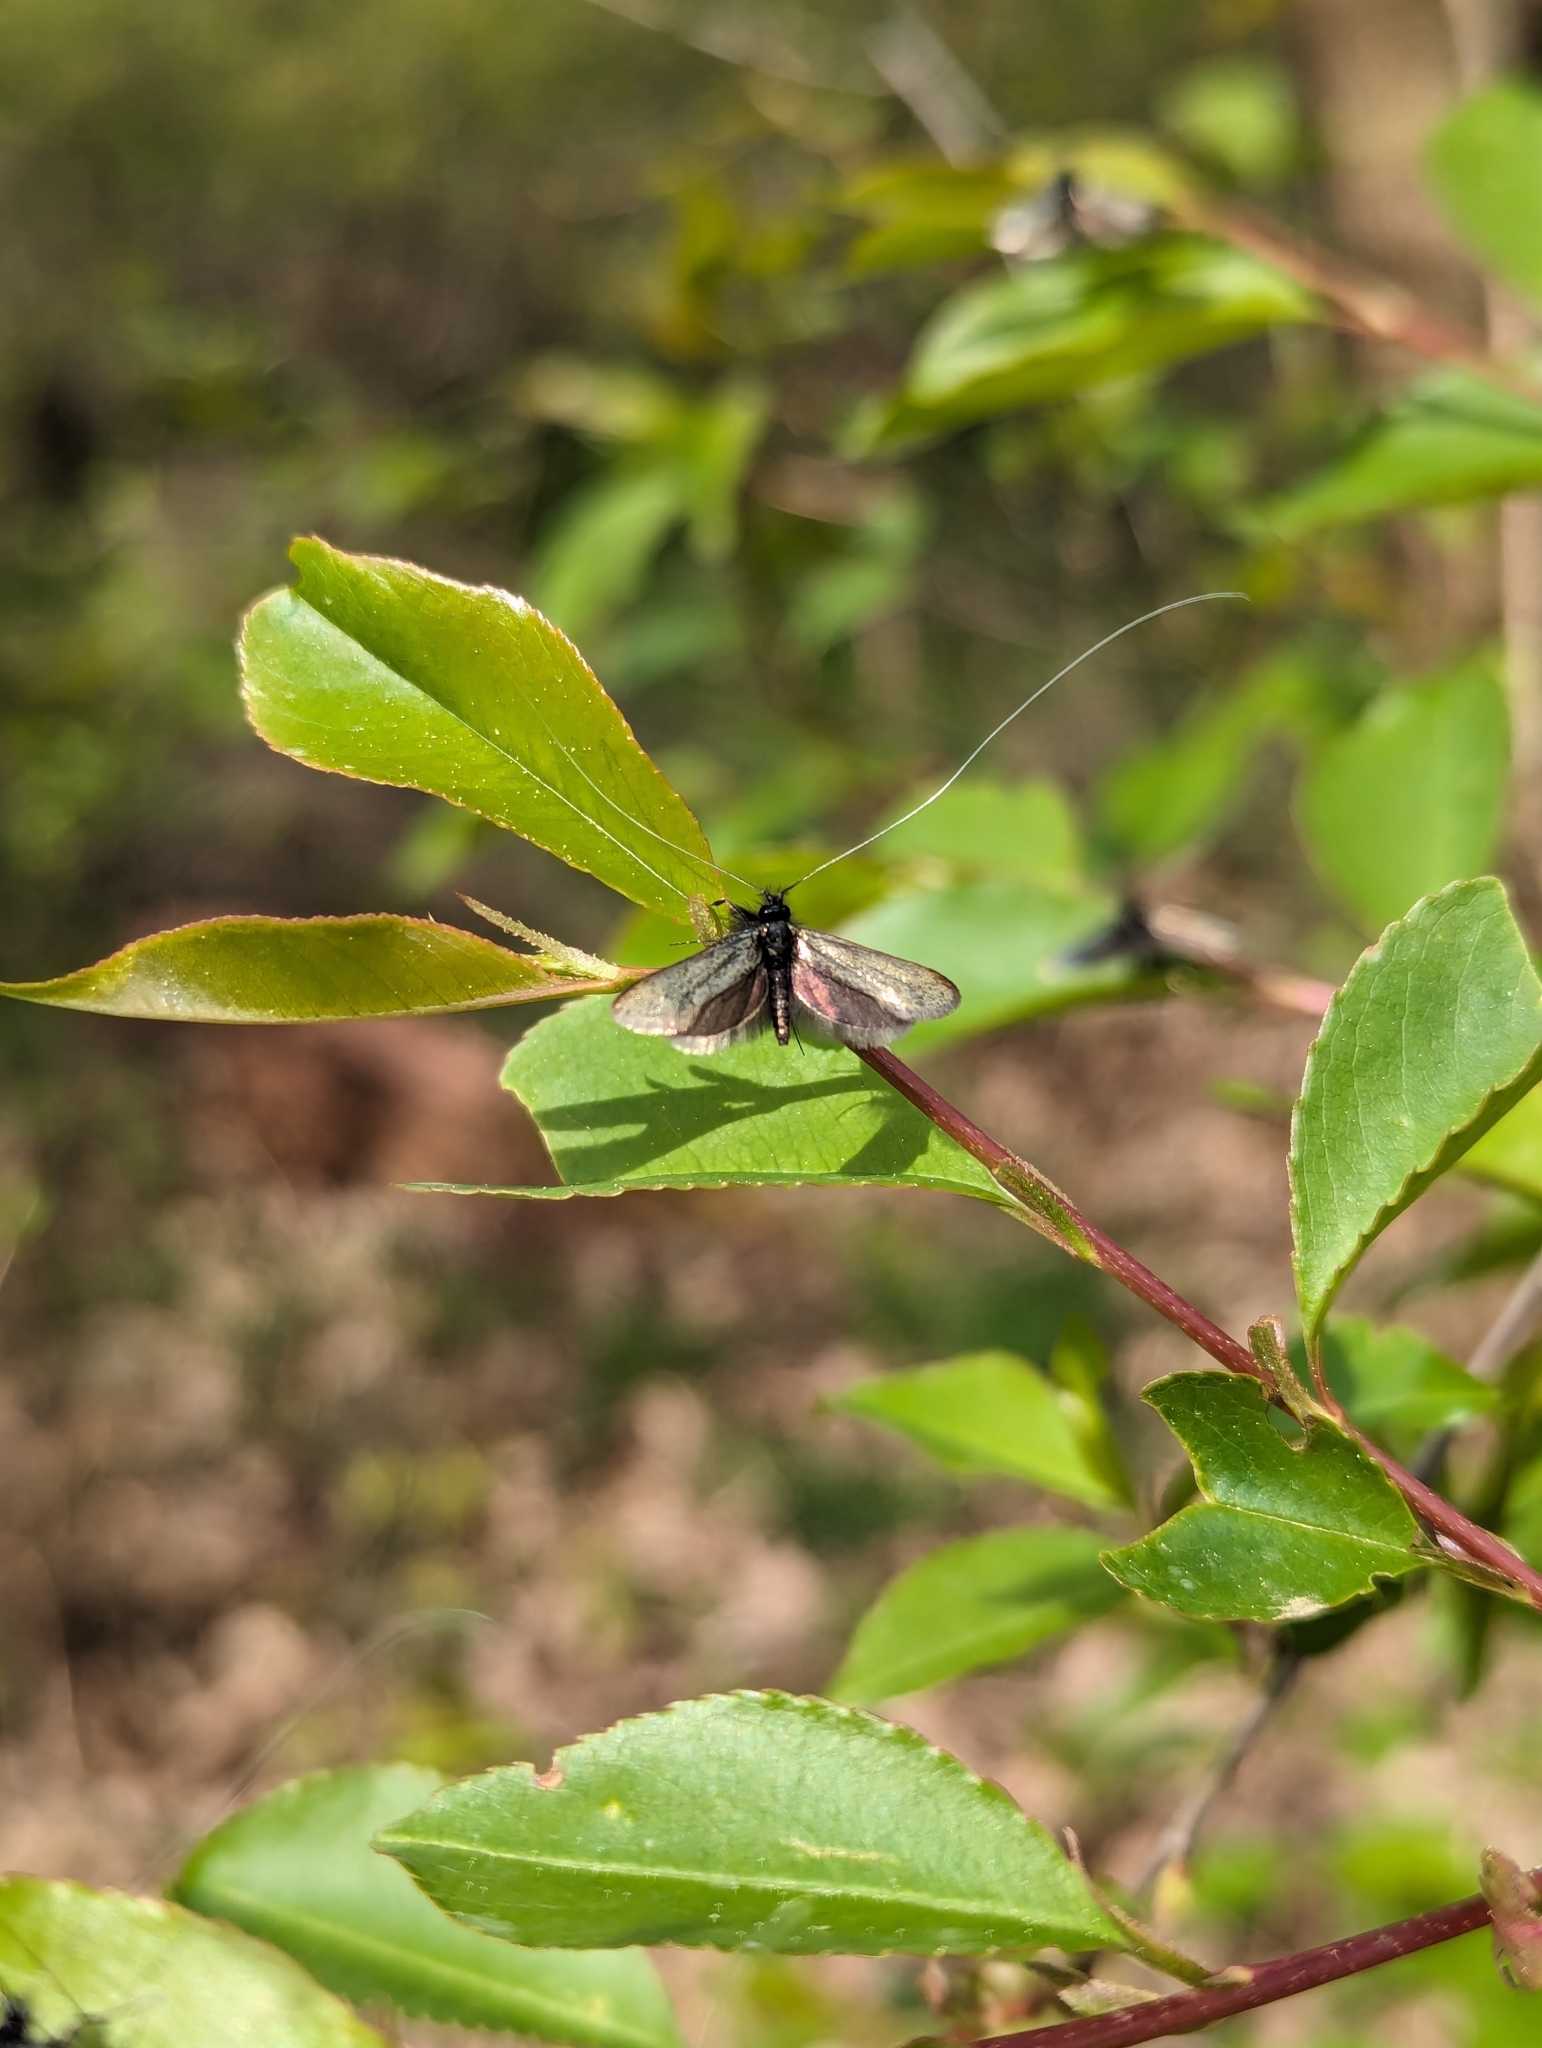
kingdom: Animalia
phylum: Arthropoda
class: Insecta
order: Lepidoptera
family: Adelidae
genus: Adela
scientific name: Adela viridella
